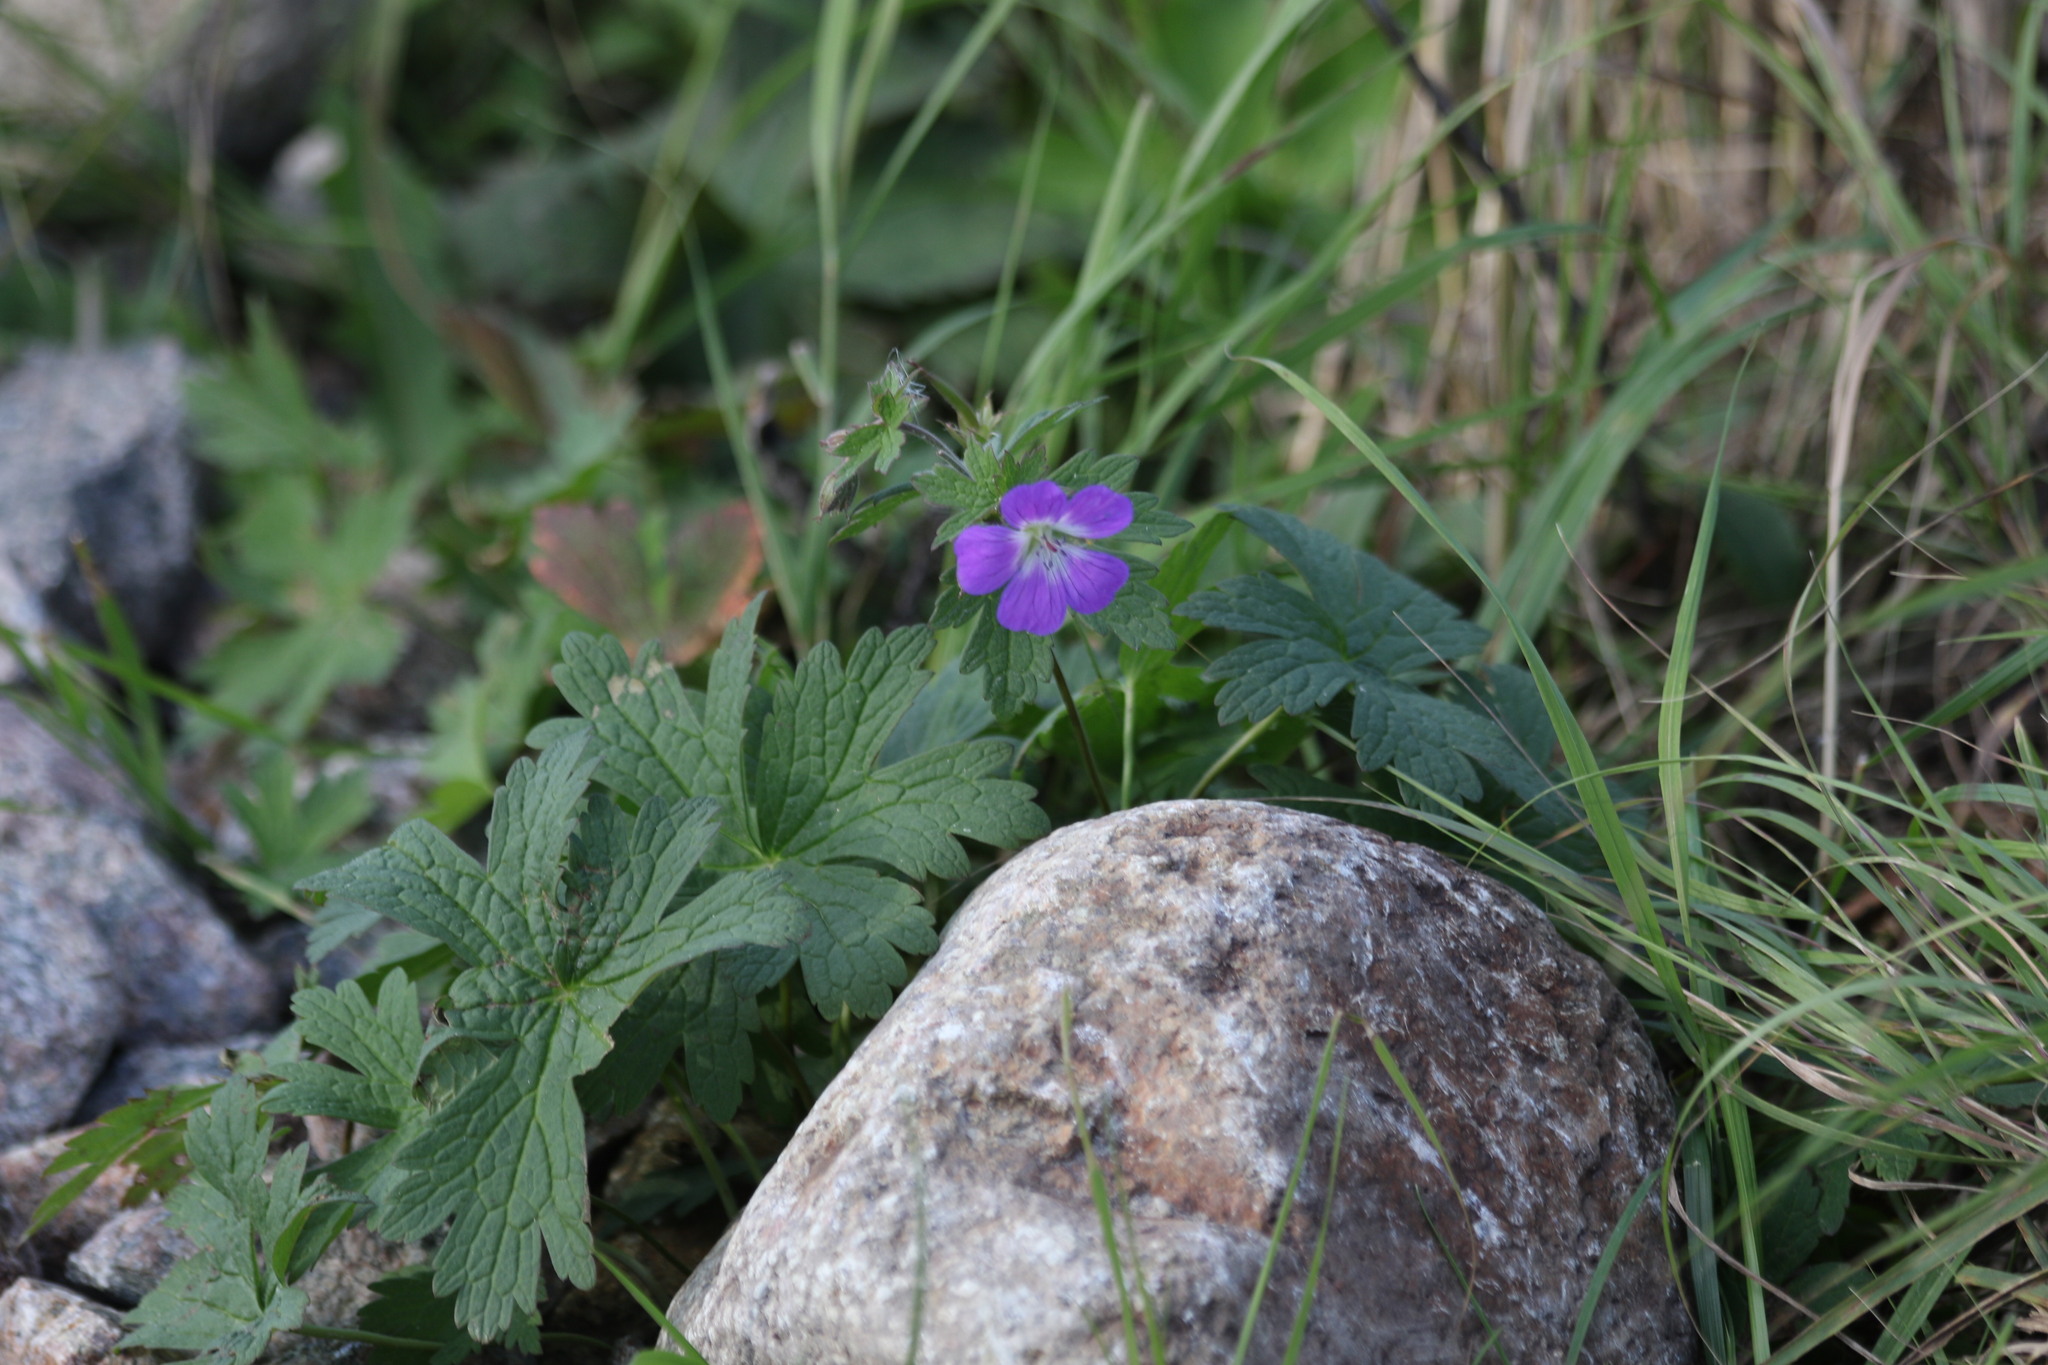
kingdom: Plantae
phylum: Tracheophyta
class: Magnoliopsida
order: Geraniales
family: Geraniaceae
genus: Geranium
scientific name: Geranium sylvaticum
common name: Wood crane's-bill
